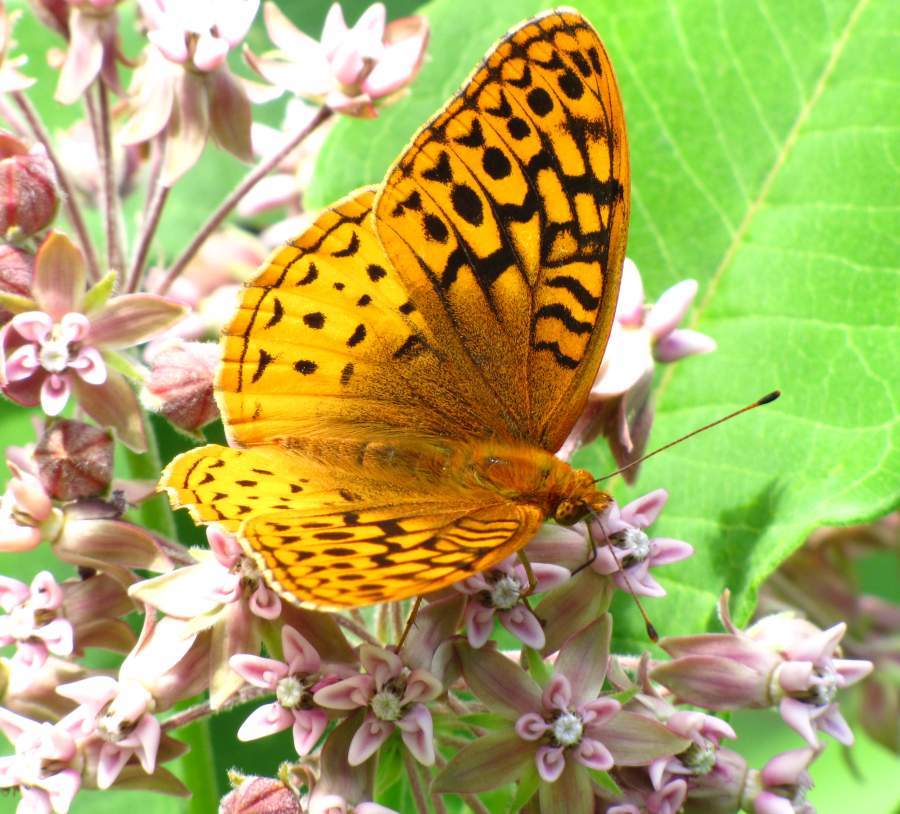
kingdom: Animalia
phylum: Arthropoda
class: Insecta
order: Lepidoptera
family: Nymphalidae
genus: Speyeria
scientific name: Speyeria cybele
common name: Great spangled fritillary
